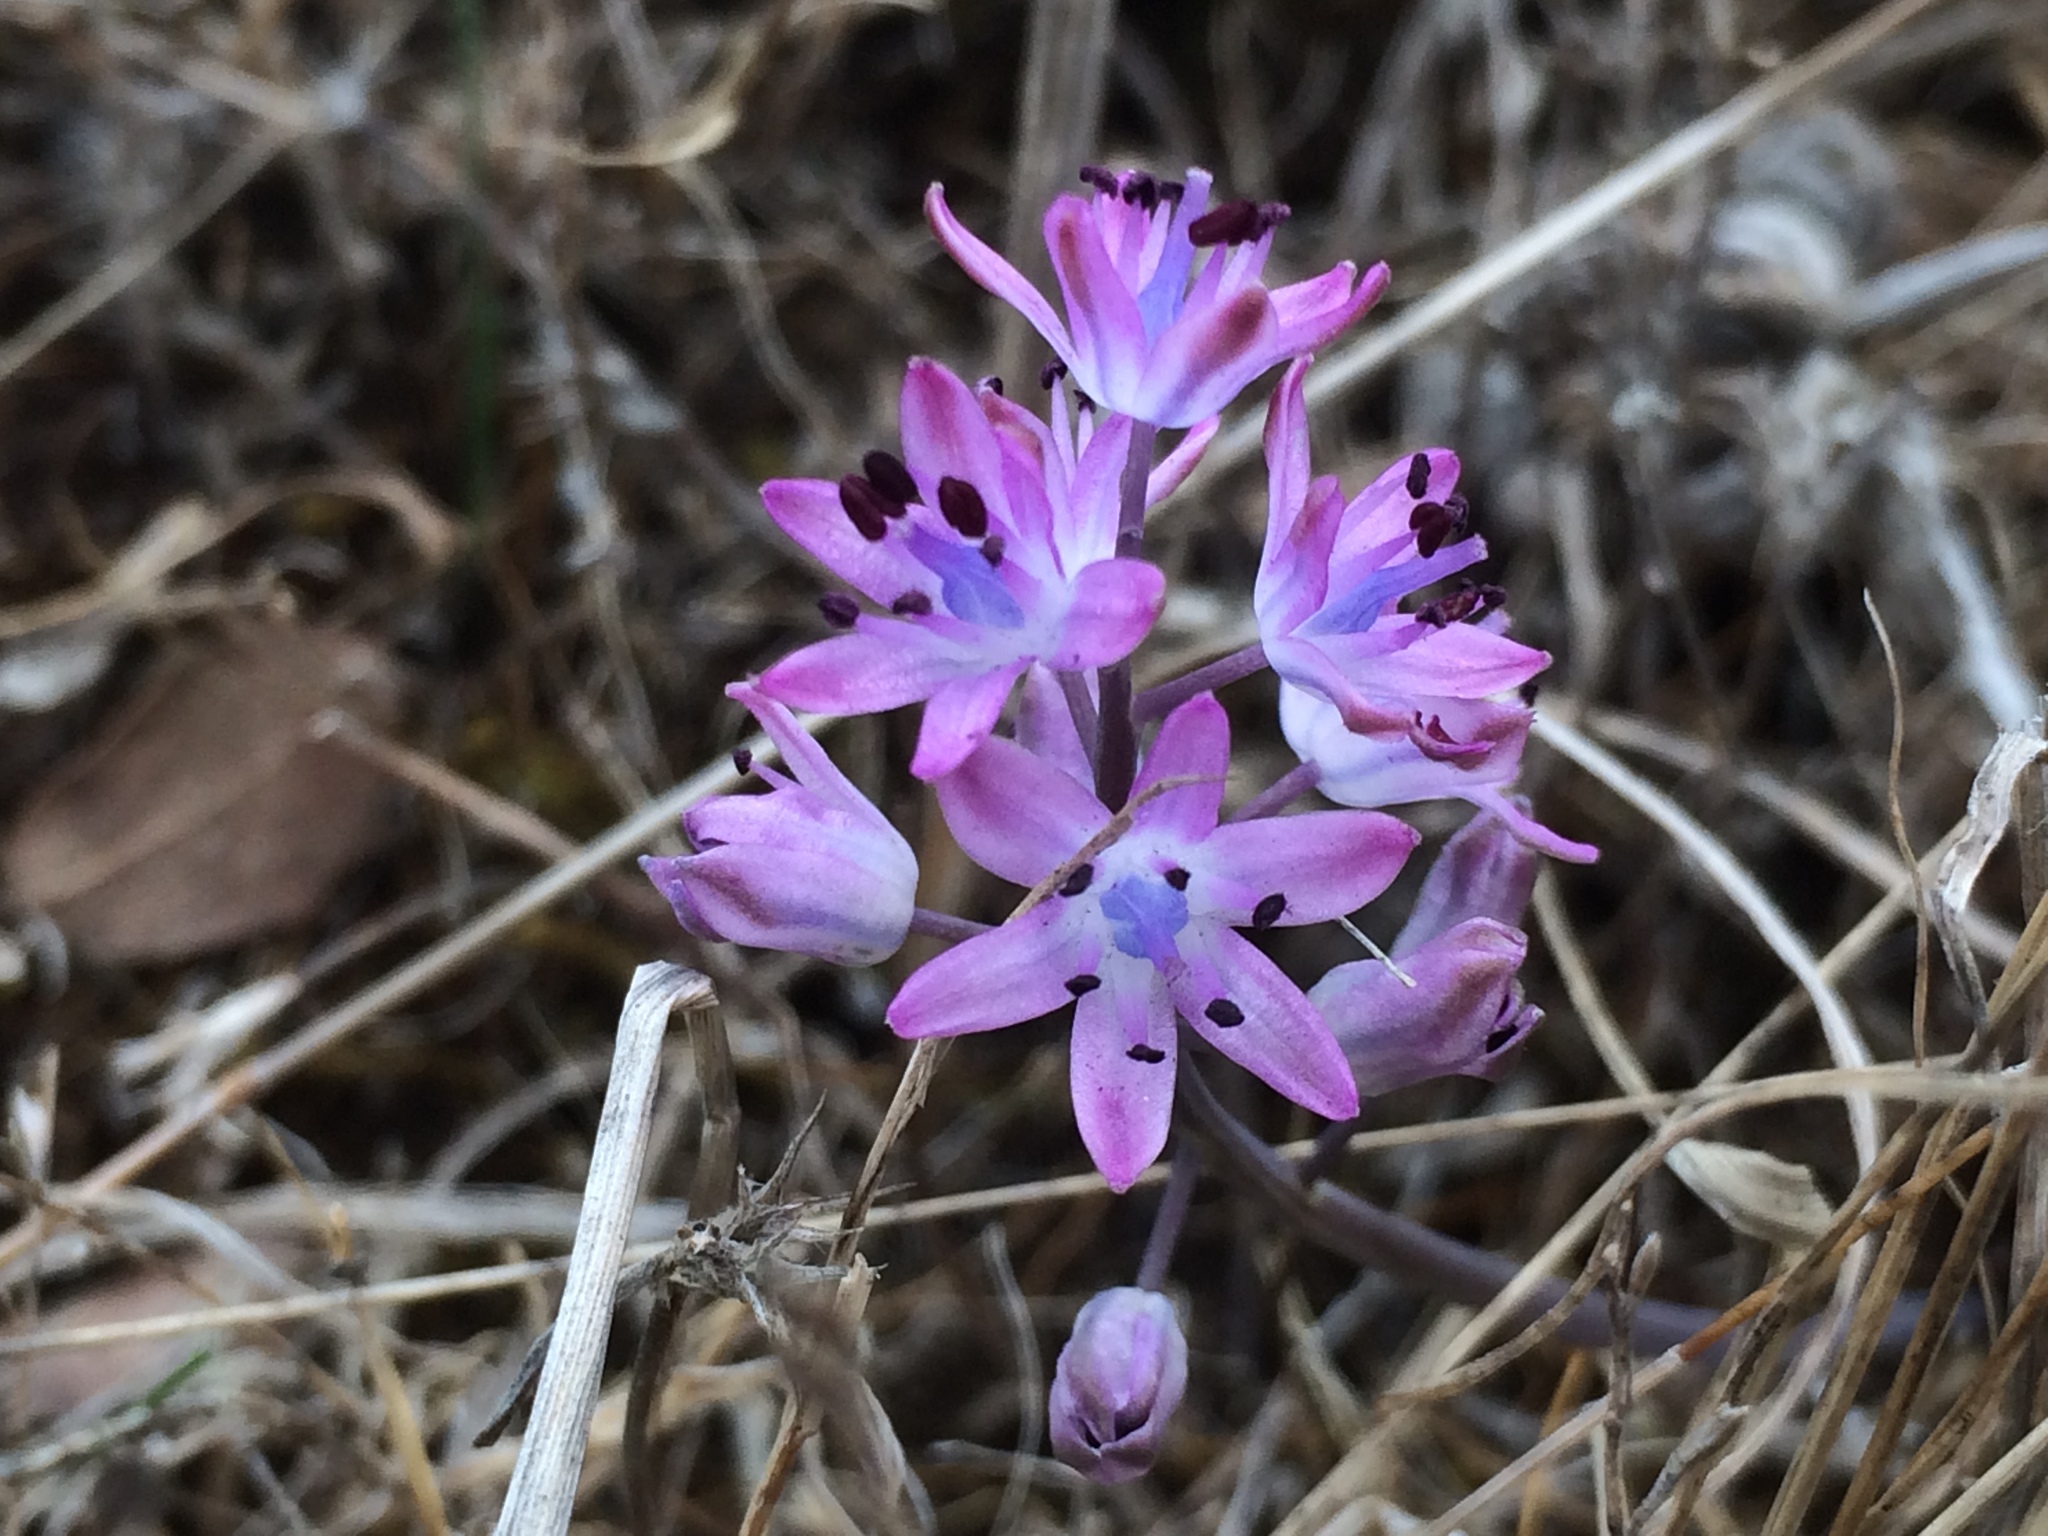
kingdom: Plantae
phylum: Tracheophyta
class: Liliopsida
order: Asparagales
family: Asparagaceae
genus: Prospero
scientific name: Prospero autumnale
